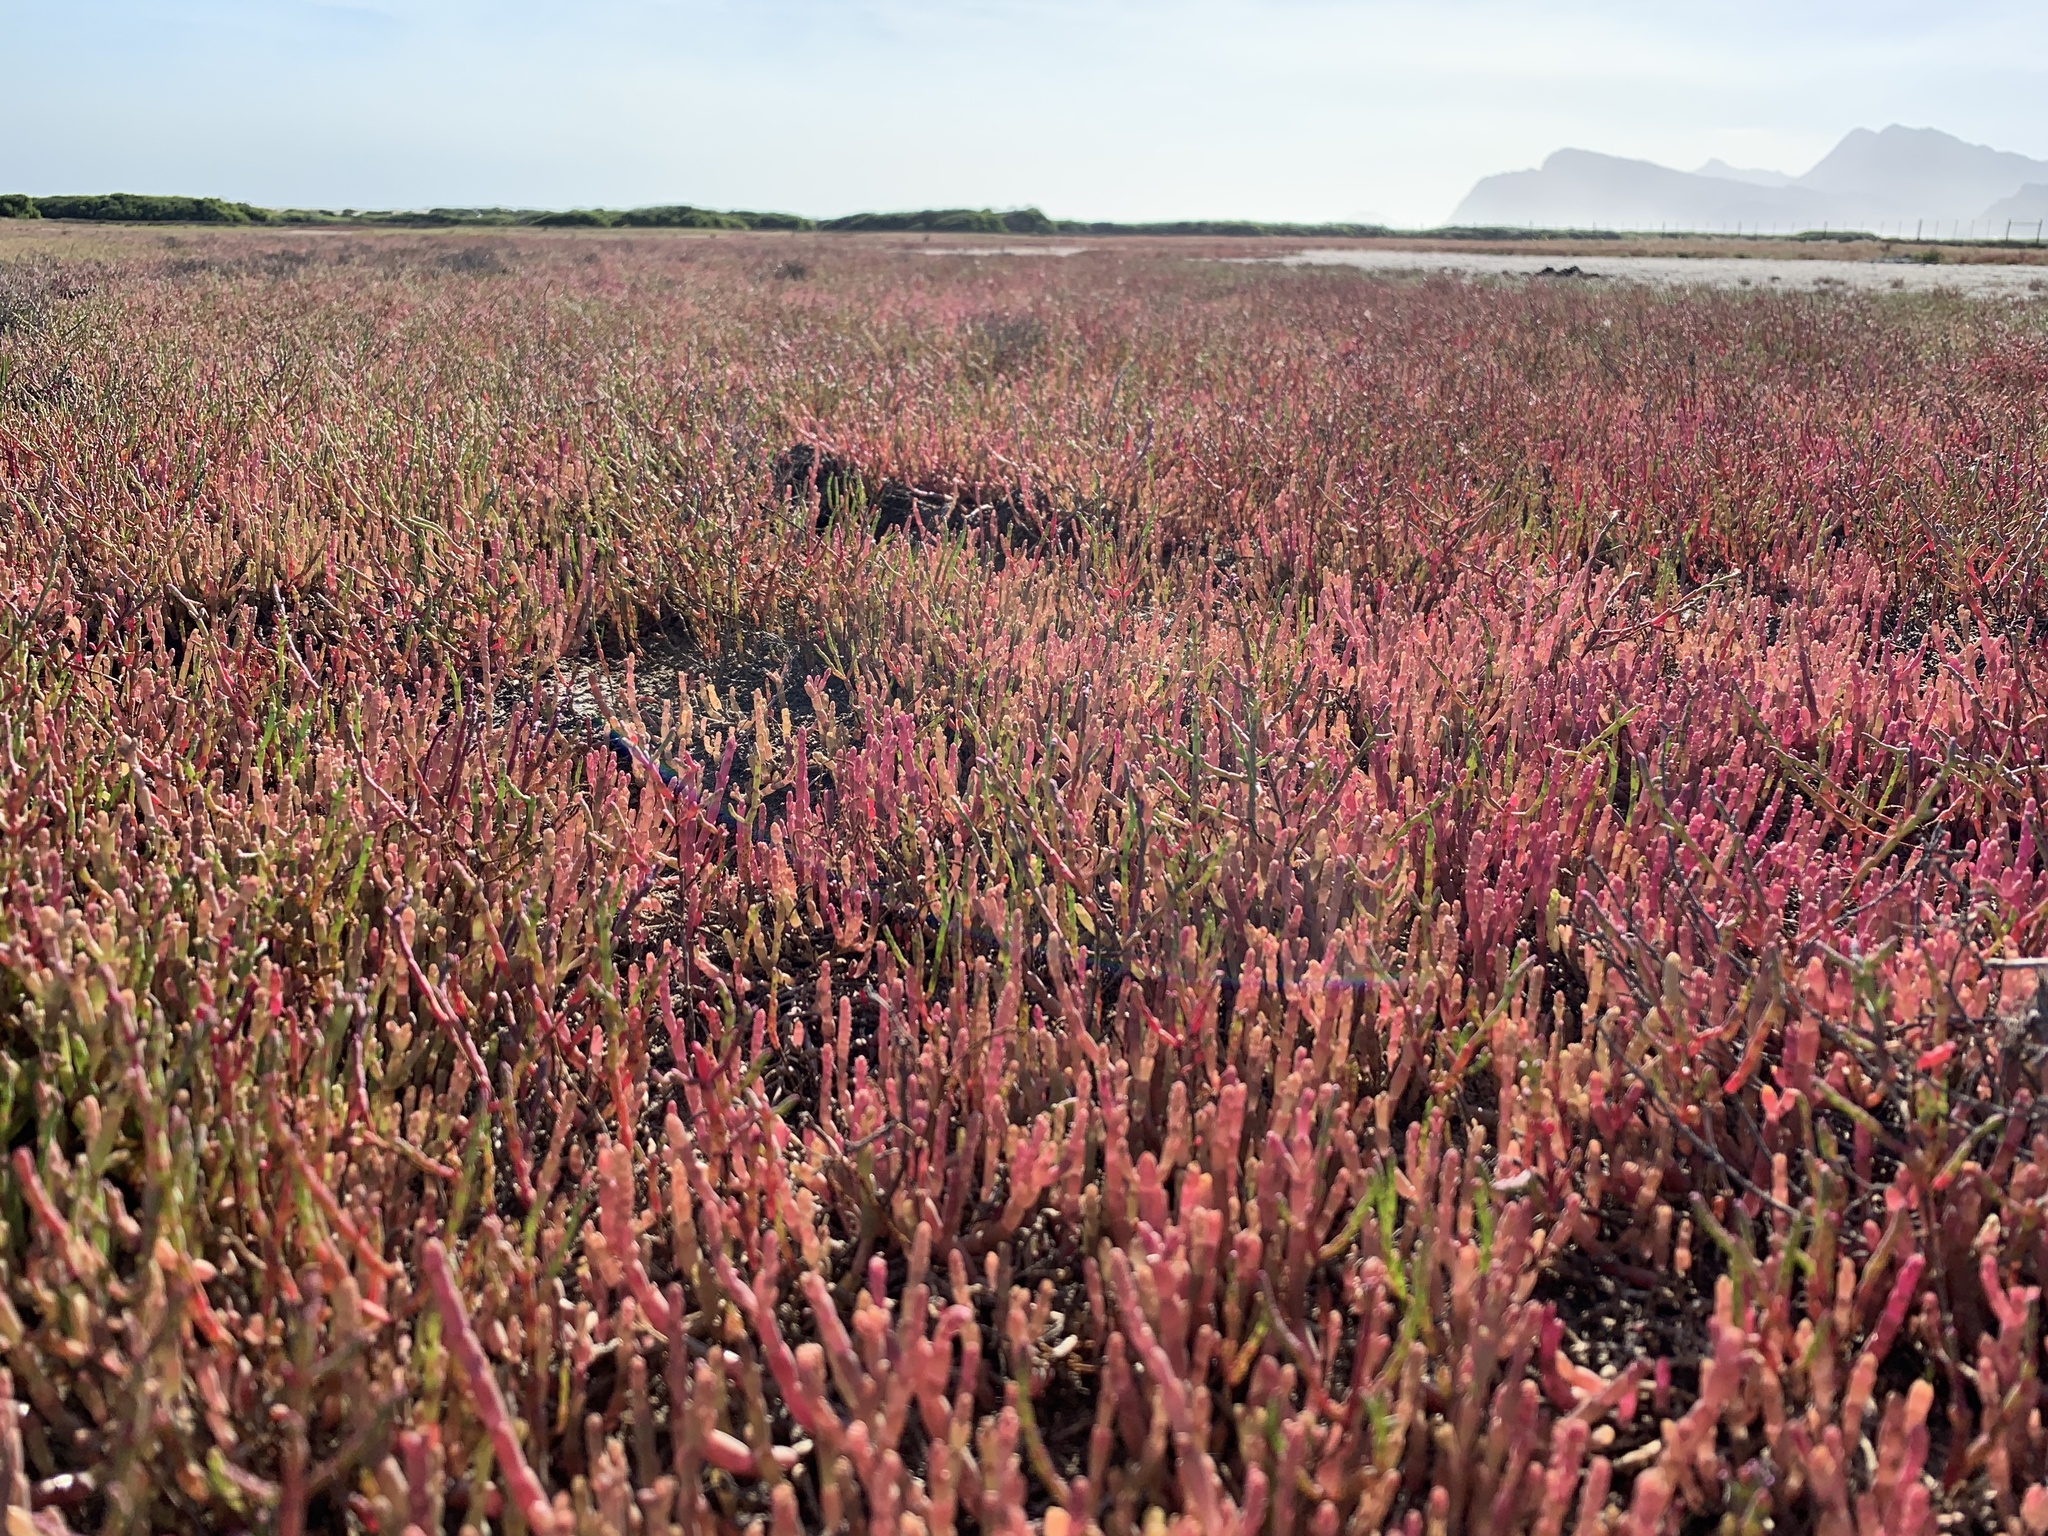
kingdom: Plantae
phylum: Tracheophyta
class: Magnoliopsida
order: Caryophyllales
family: Amaranthaceae
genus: Salicornia
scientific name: Salicornia meyeriana
